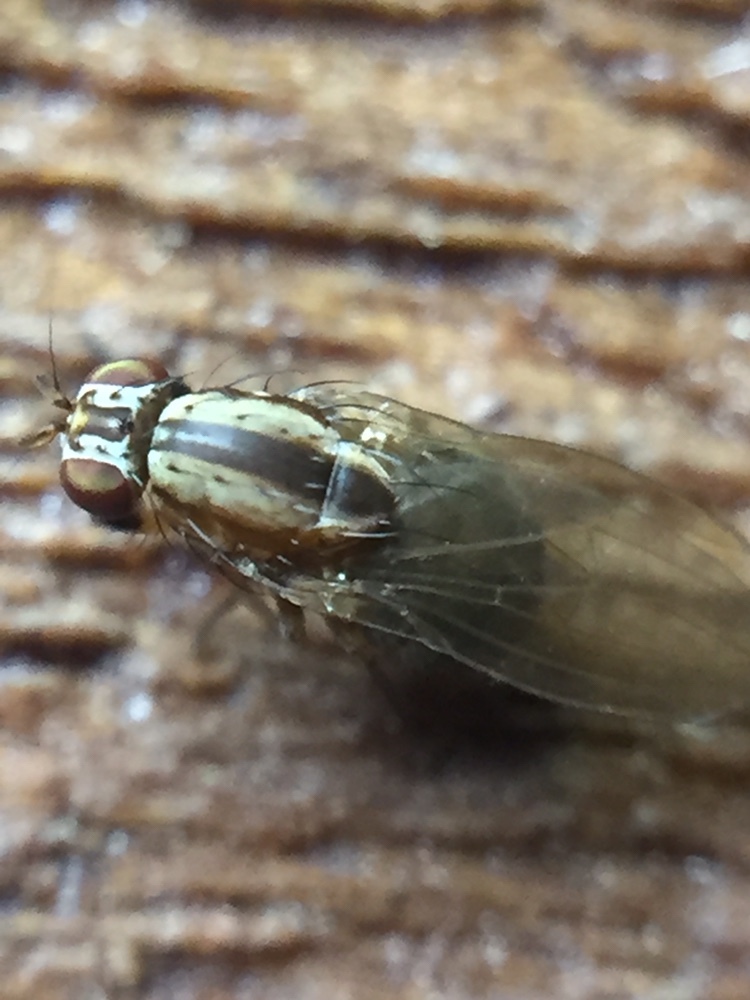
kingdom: Animalia
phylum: Arthropoda
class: Insecta
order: Diptera
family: Lauxaniidae
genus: Poecilohetaerus
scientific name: Poecilohetaerus punctatifacies
